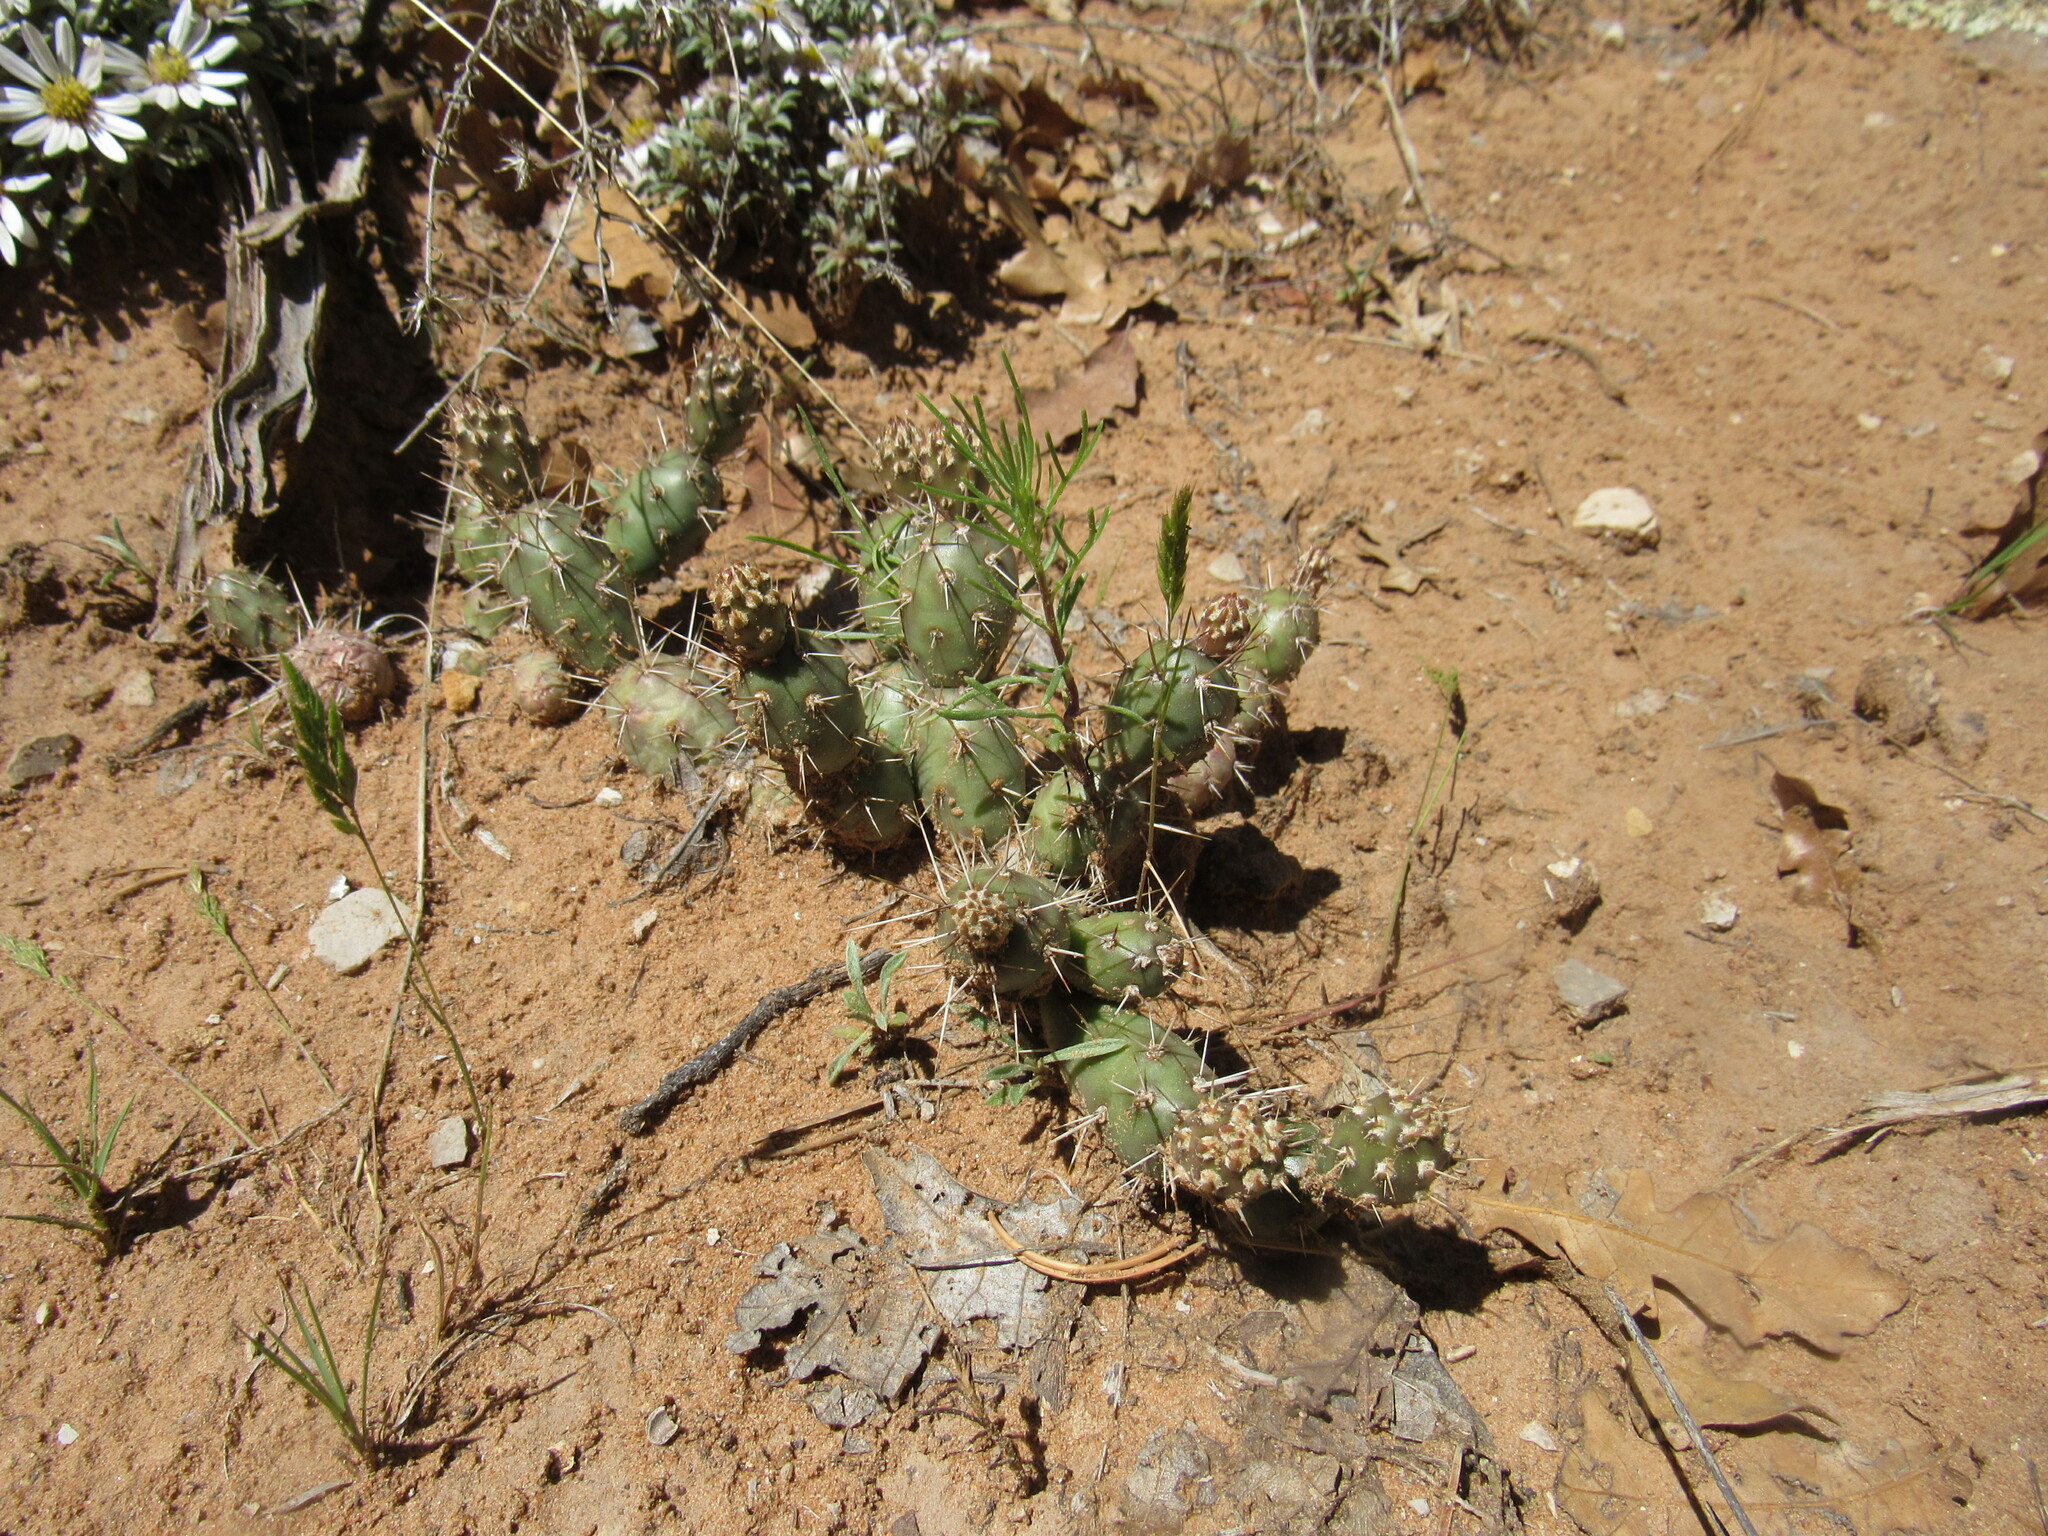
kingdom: Plantae
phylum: Tracheophyta
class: Magnoliopsida
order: Caryophyllales
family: Cactaceae
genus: Opuntia
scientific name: Opuntia fragilis
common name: Brittle cactus
